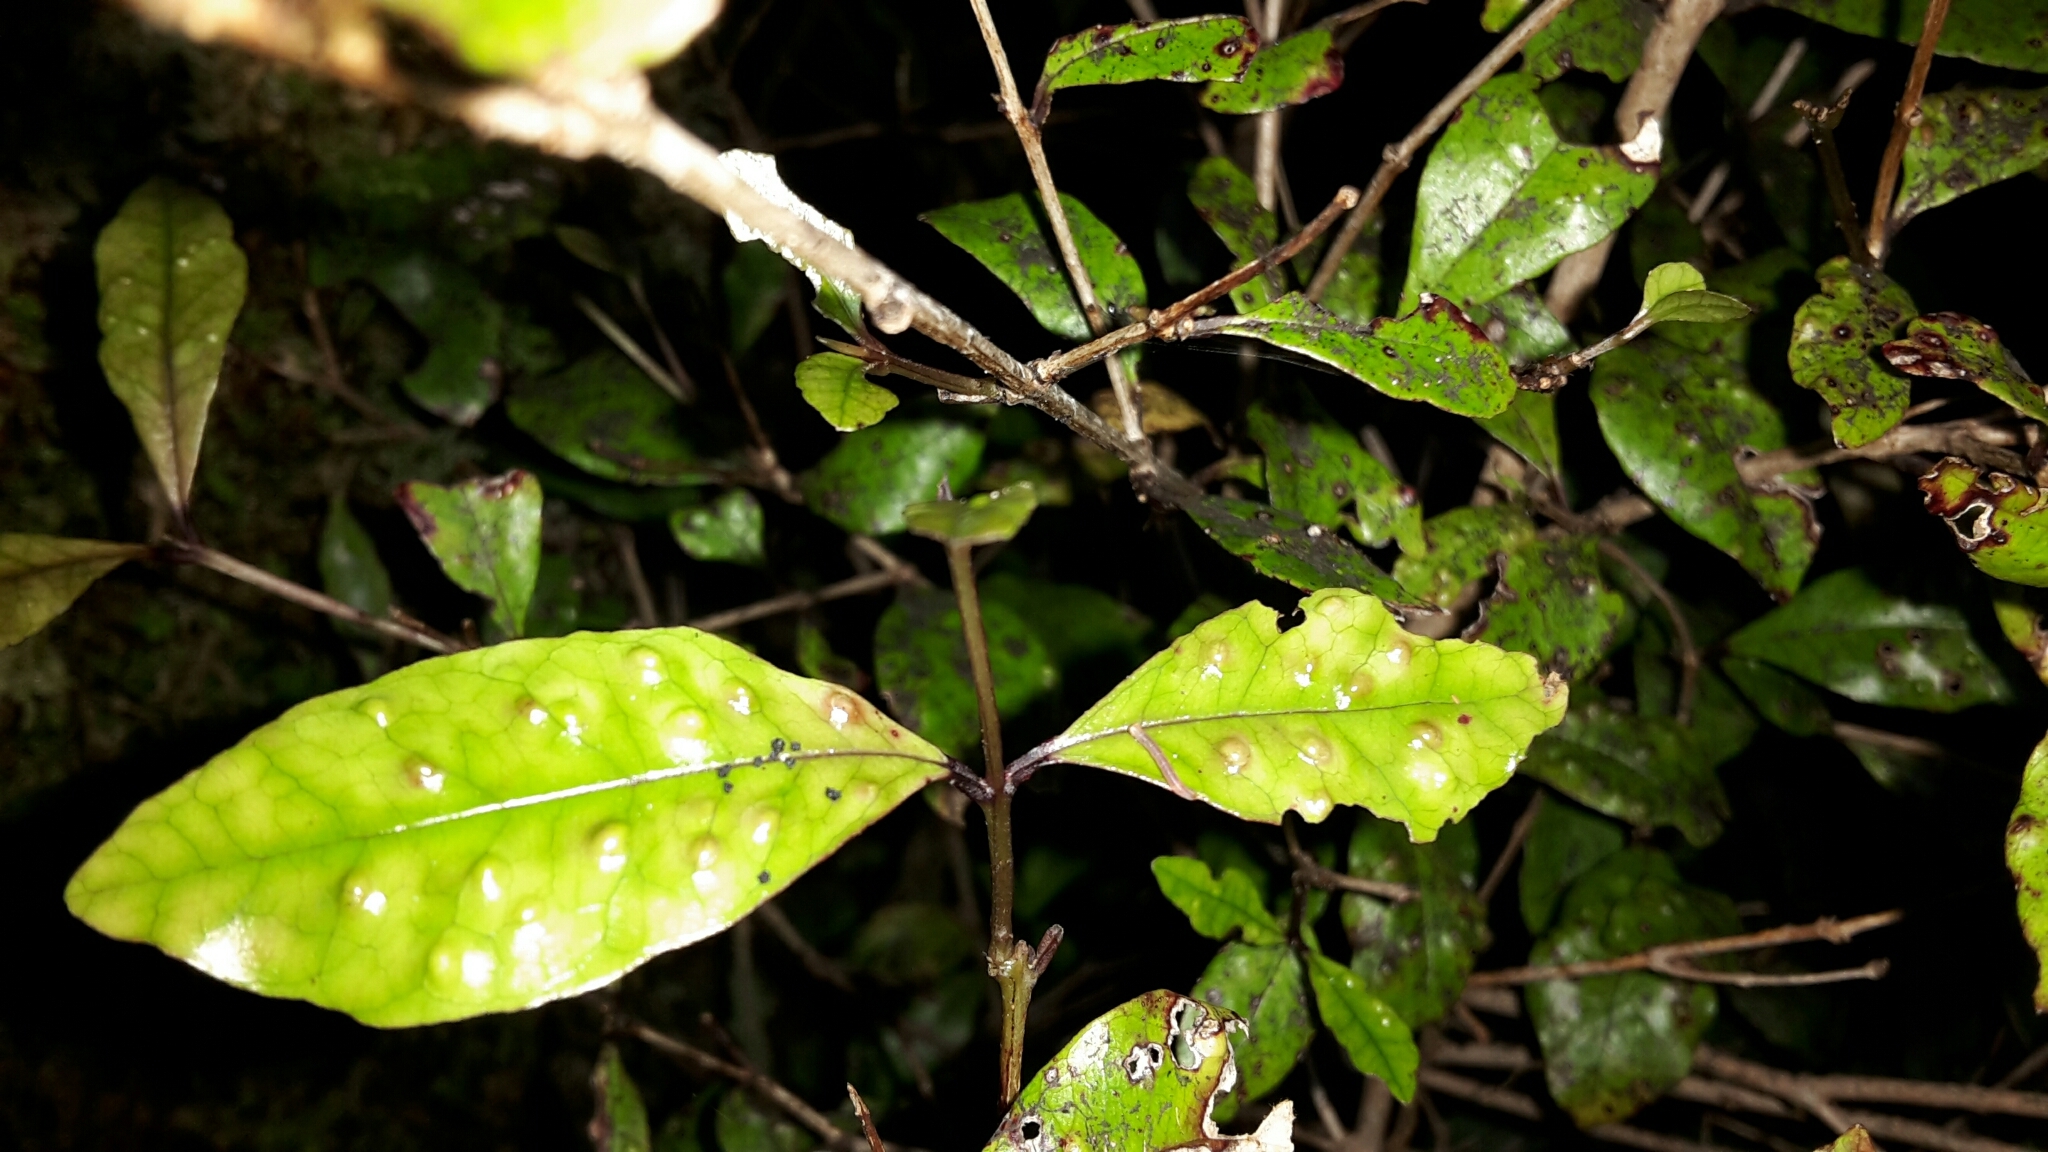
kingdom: Plantae
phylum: Tracheophyta
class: Magnoliopsida
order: Myrtales
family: Myrtaceae
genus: Syzygium
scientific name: Syzygium maire
